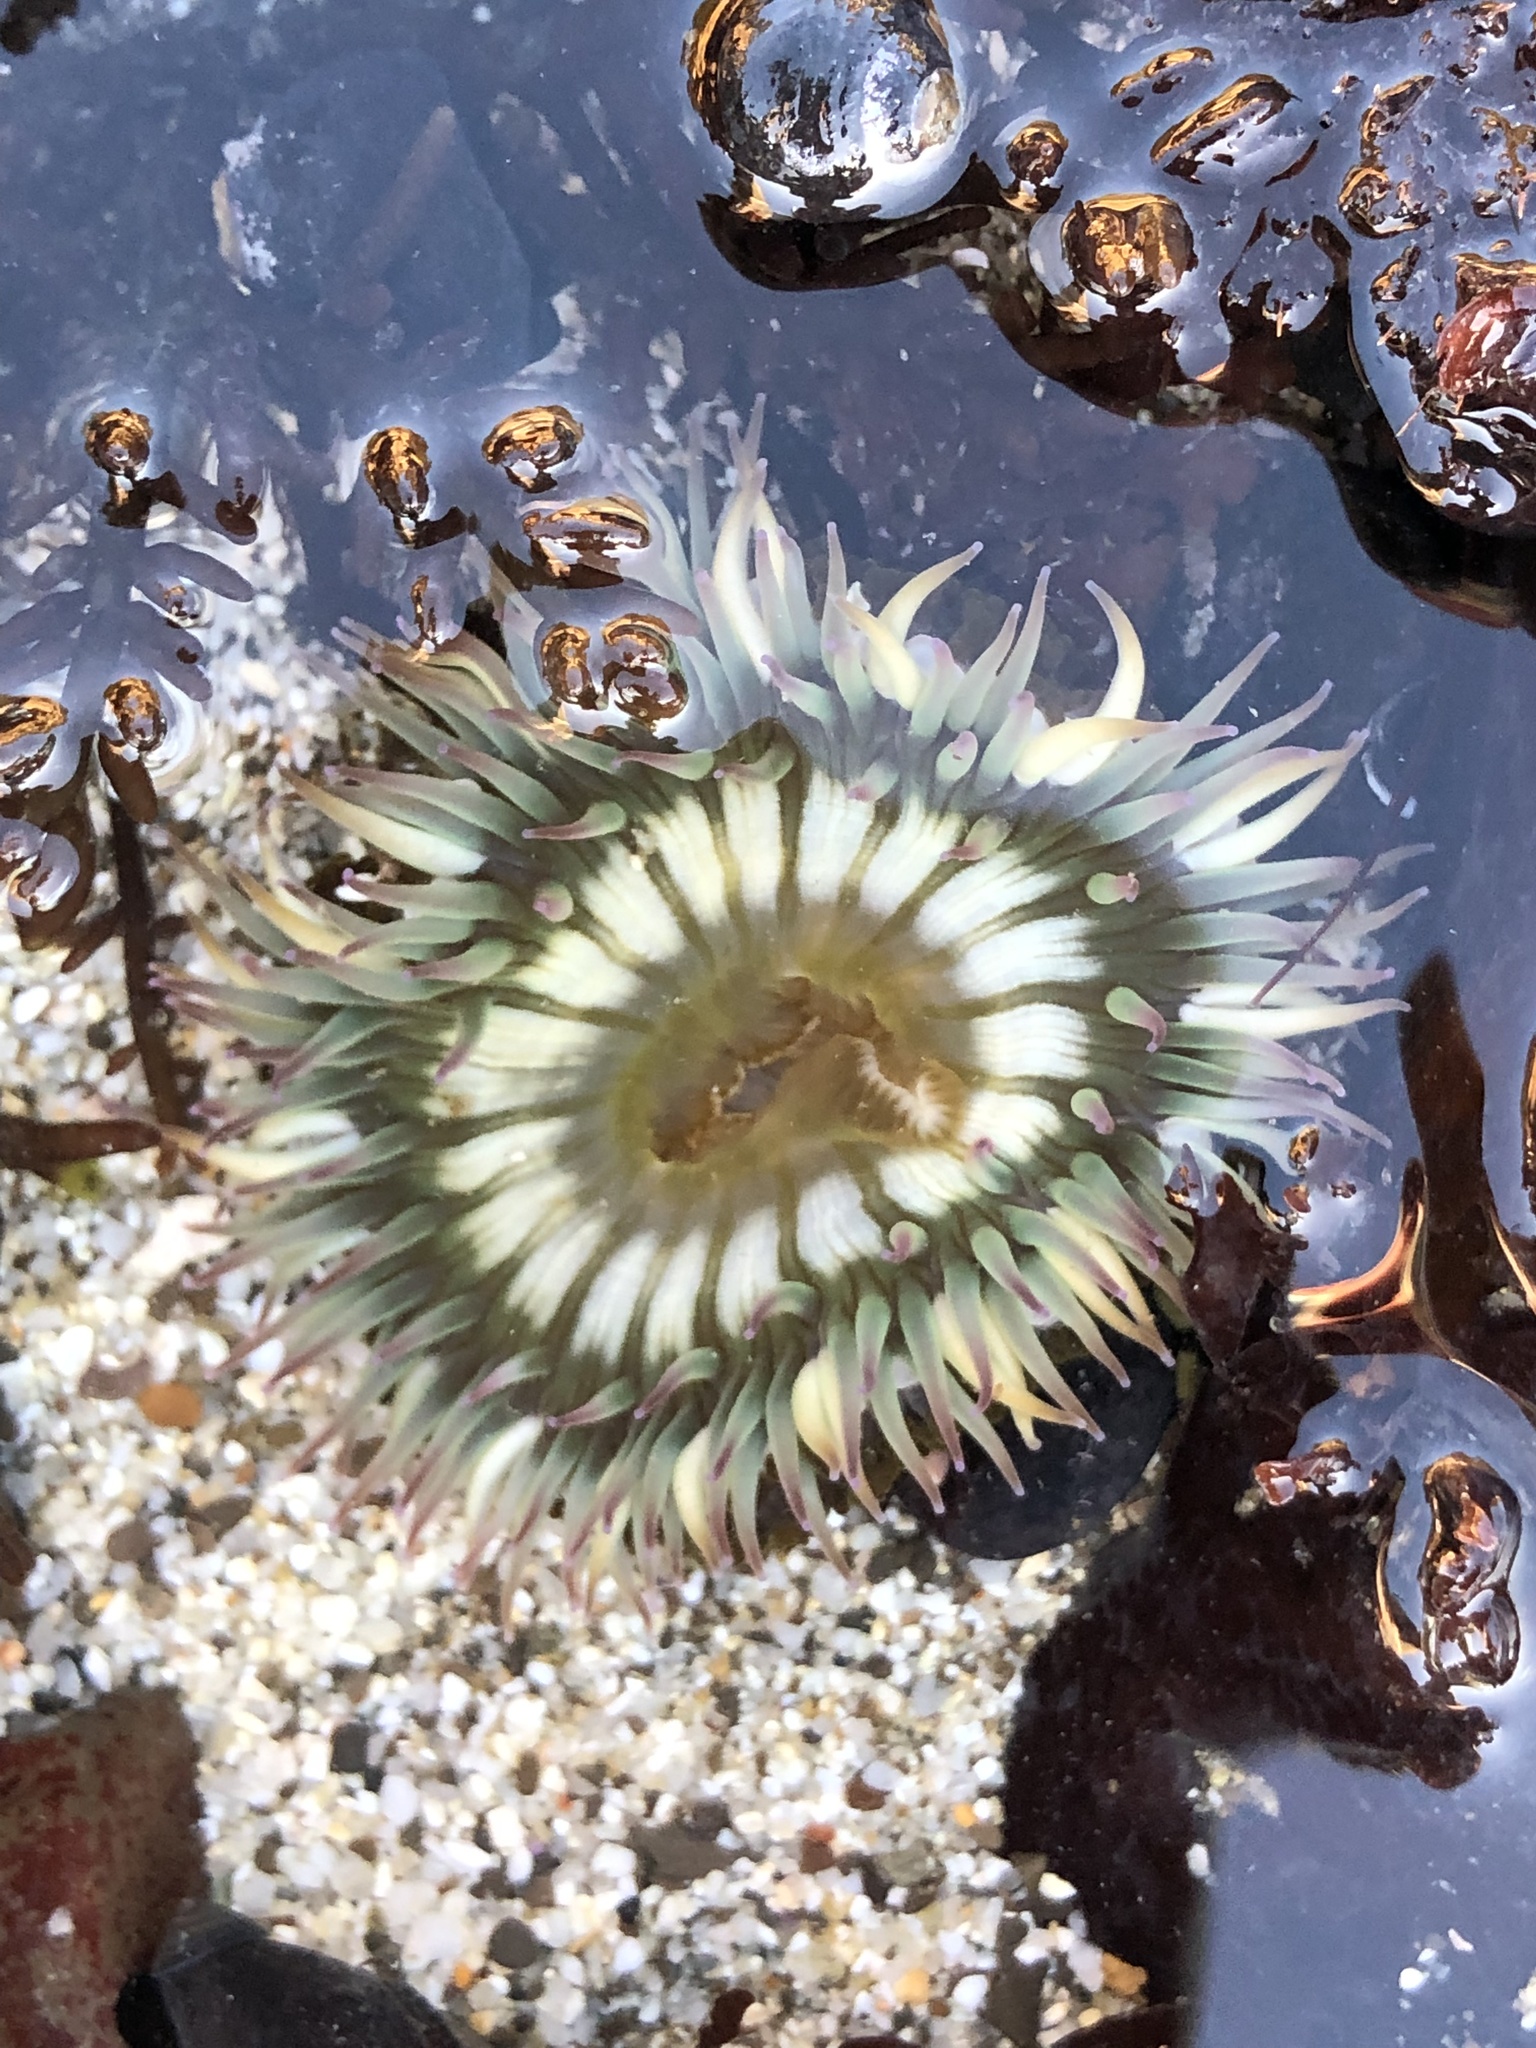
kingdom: Animalia
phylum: Cnidaria
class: Anthozoa
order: Actiniaria
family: Actiniidae
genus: Anthopleura
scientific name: Anthopleura sola
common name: Sun anemone
